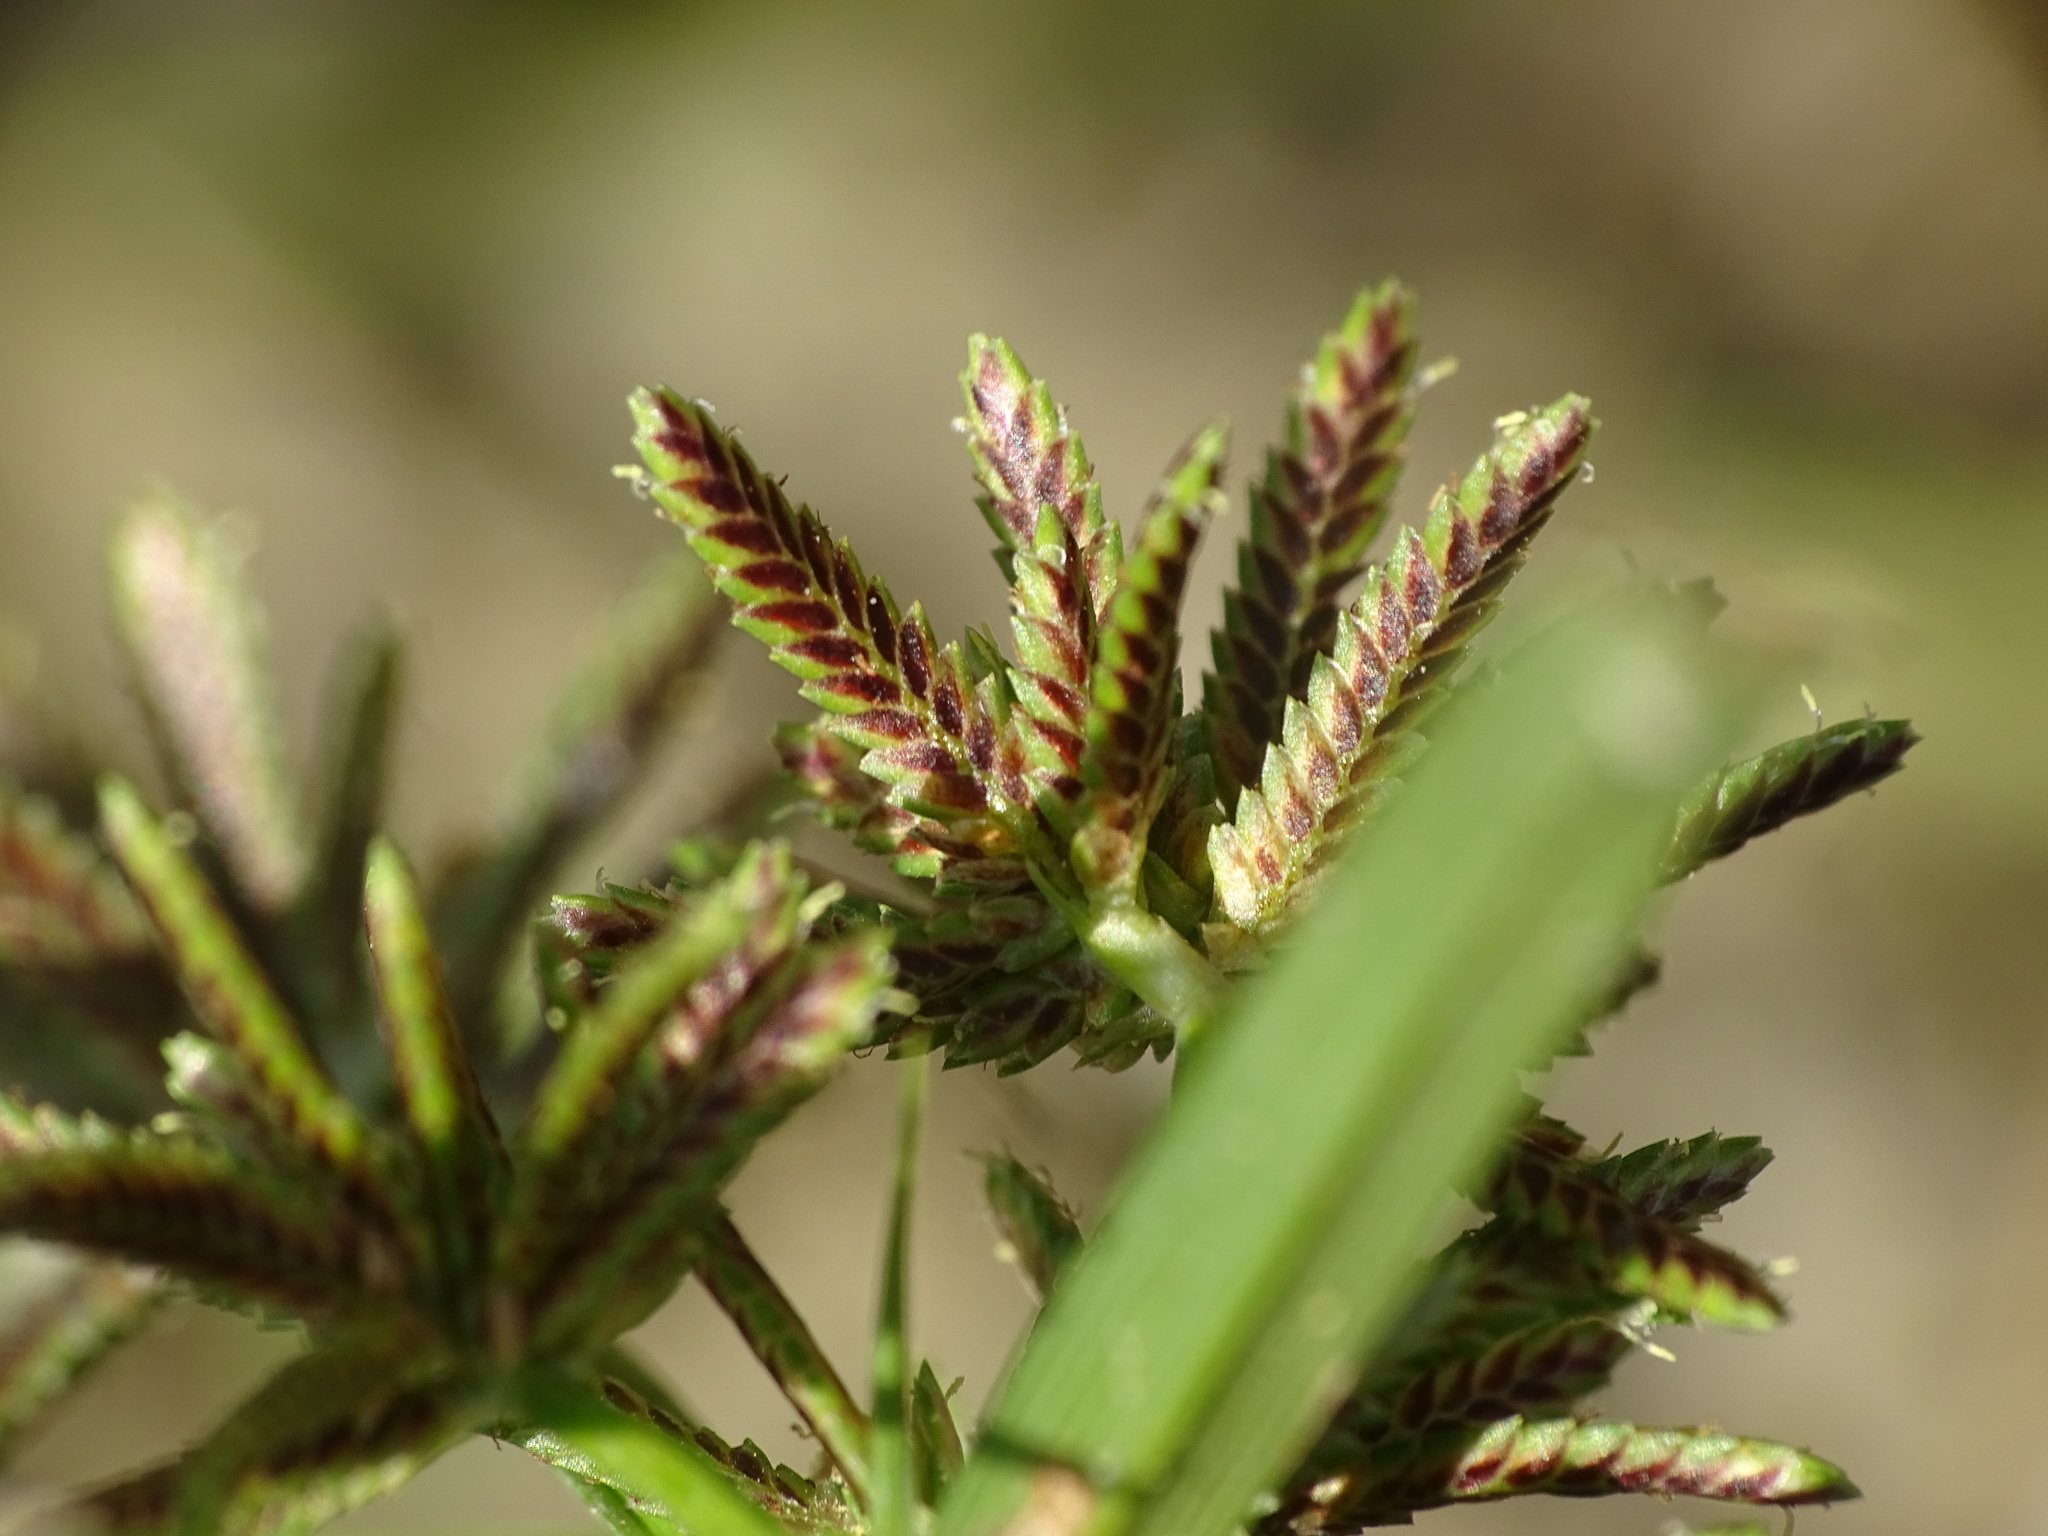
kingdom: Plantae
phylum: Tracheophyta
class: Liliopsida
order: Poales
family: Cyperaceae
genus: Cyperus
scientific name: Cyperus fuscus
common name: Brown galingale
